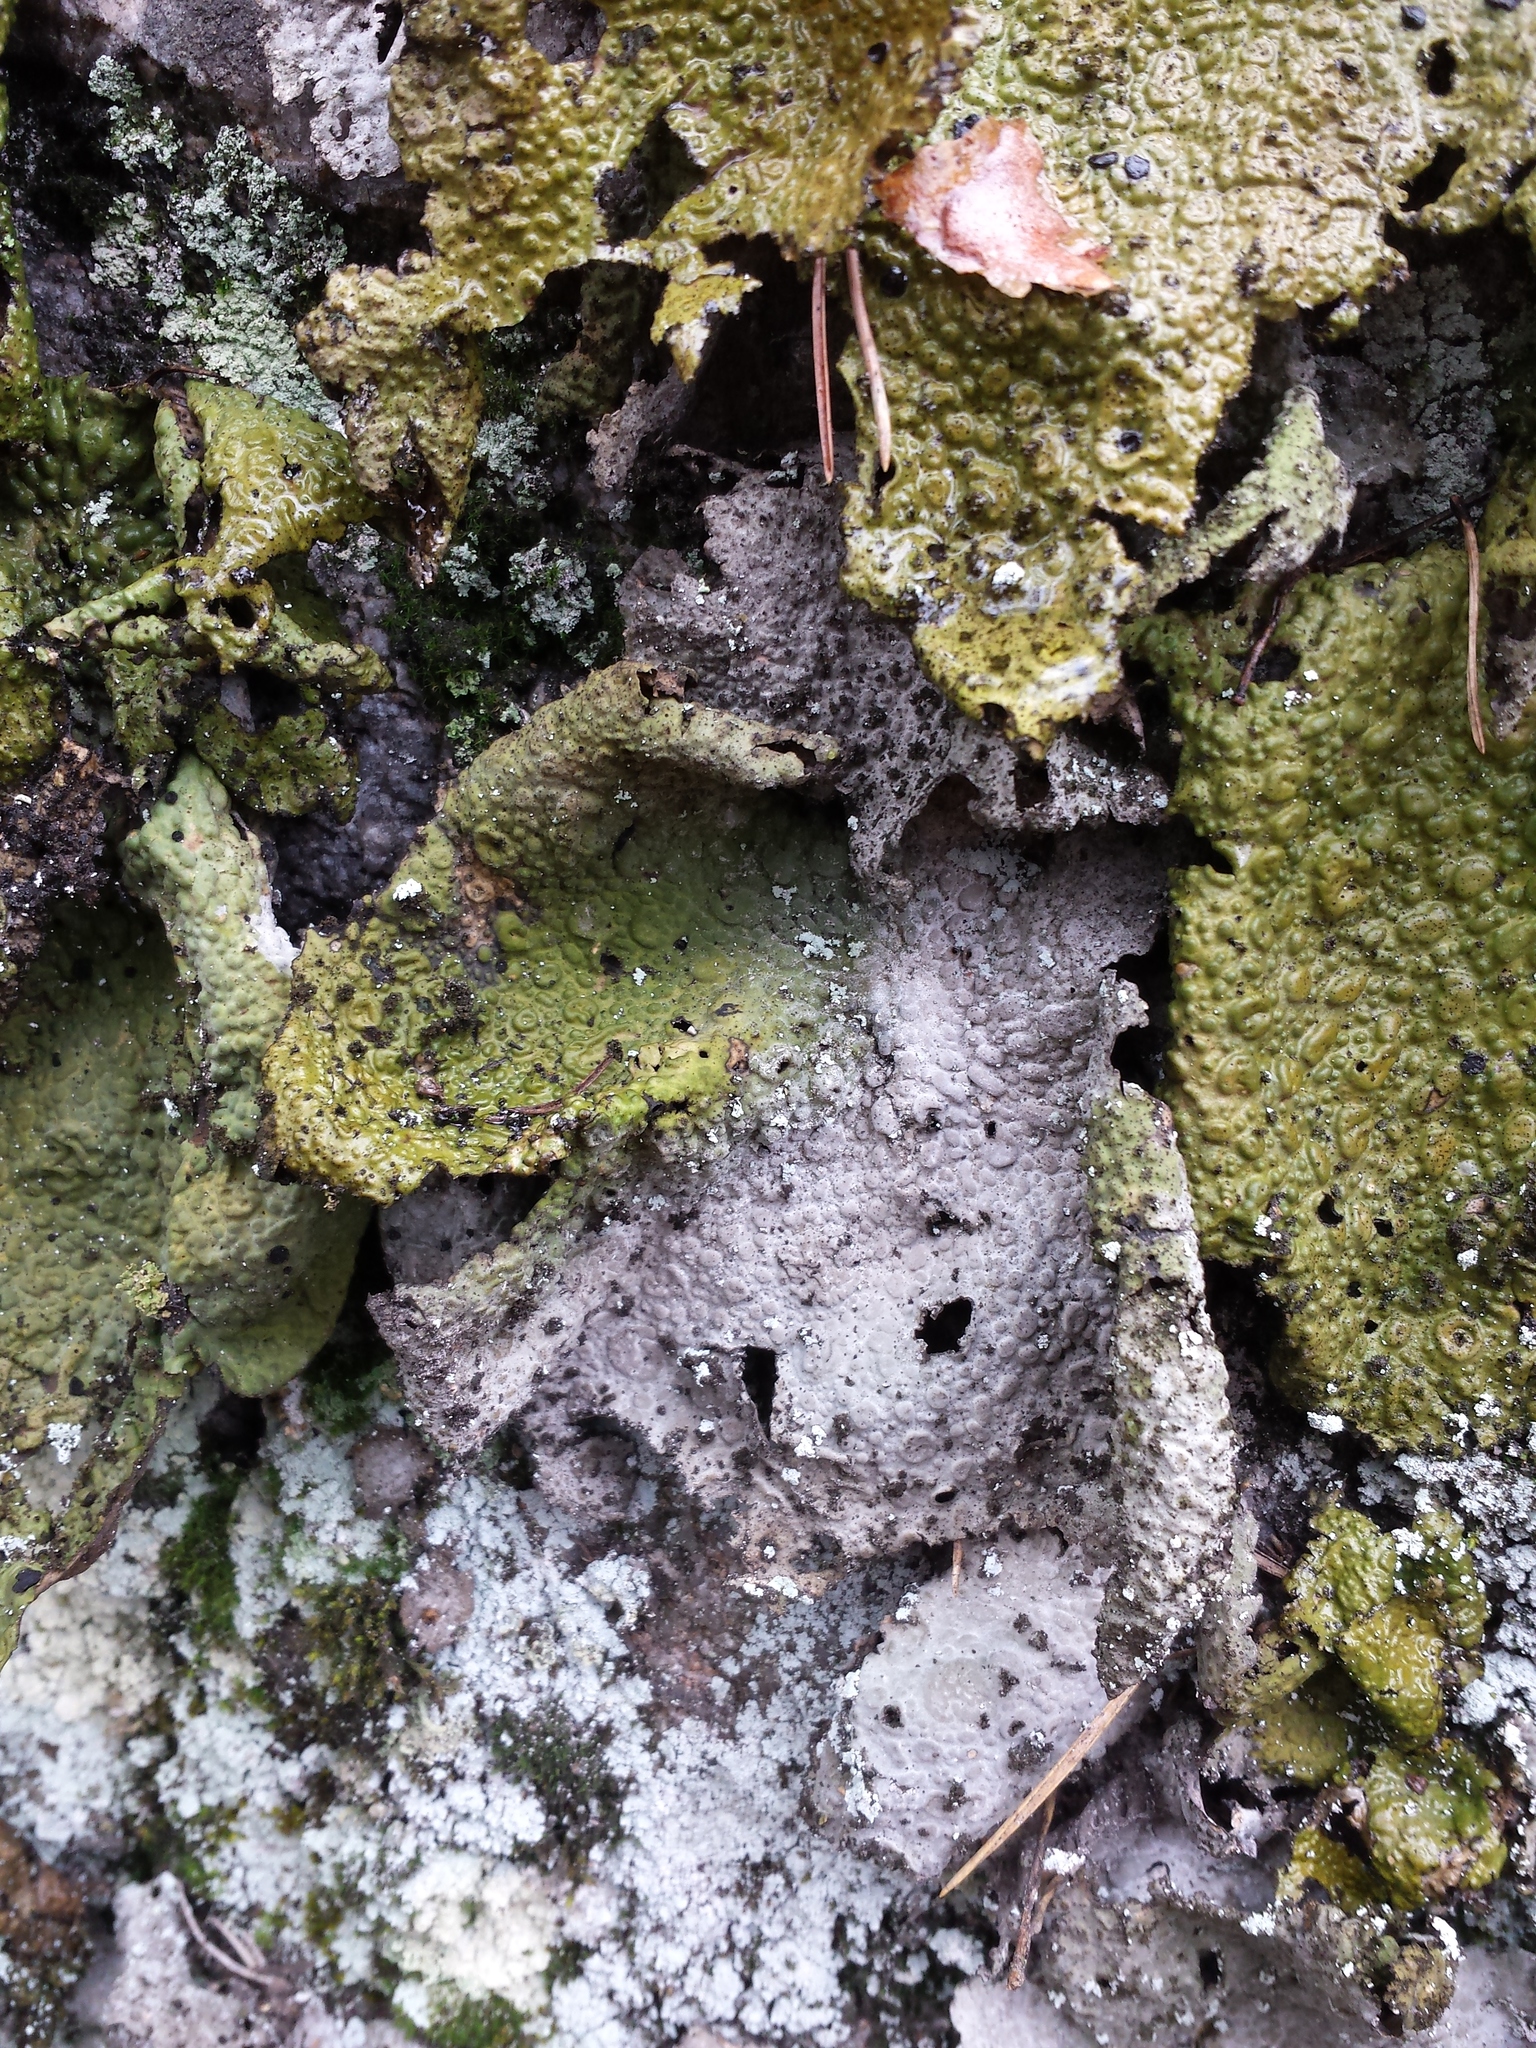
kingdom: Fungi
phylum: Ascomycota
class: Lecanoromycetes
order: Umbilicariales
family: Umbilicariaceae
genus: Lasallia
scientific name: Lasallia pustulata
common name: Blistered toadskin lichen
